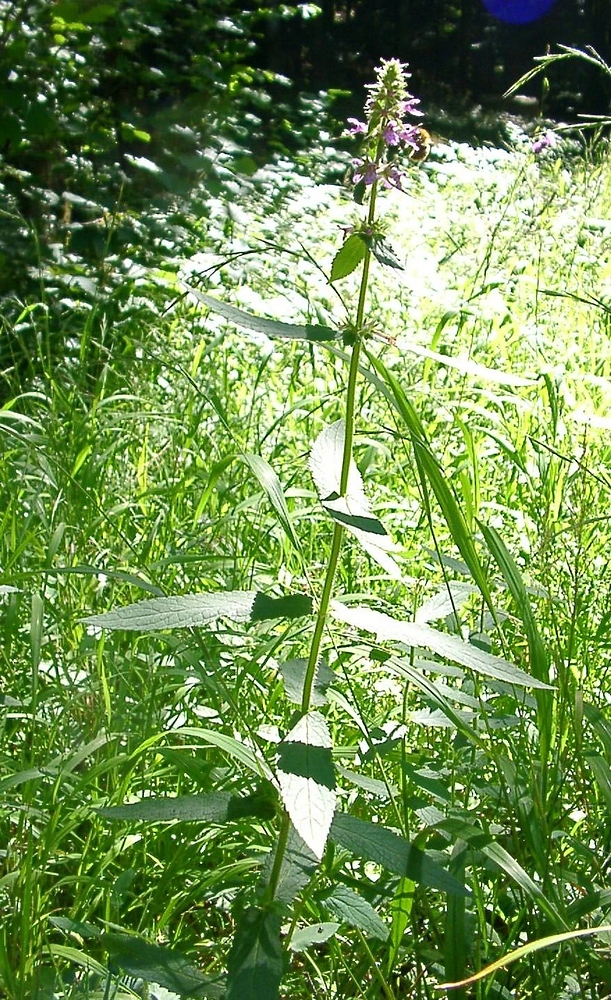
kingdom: Plantae
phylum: Tracheophyta
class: Magnoliopsida
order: Lamiales
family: Lamiaceae
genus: Stachys
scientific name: Stachys palustris
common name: Marsh woundwort
